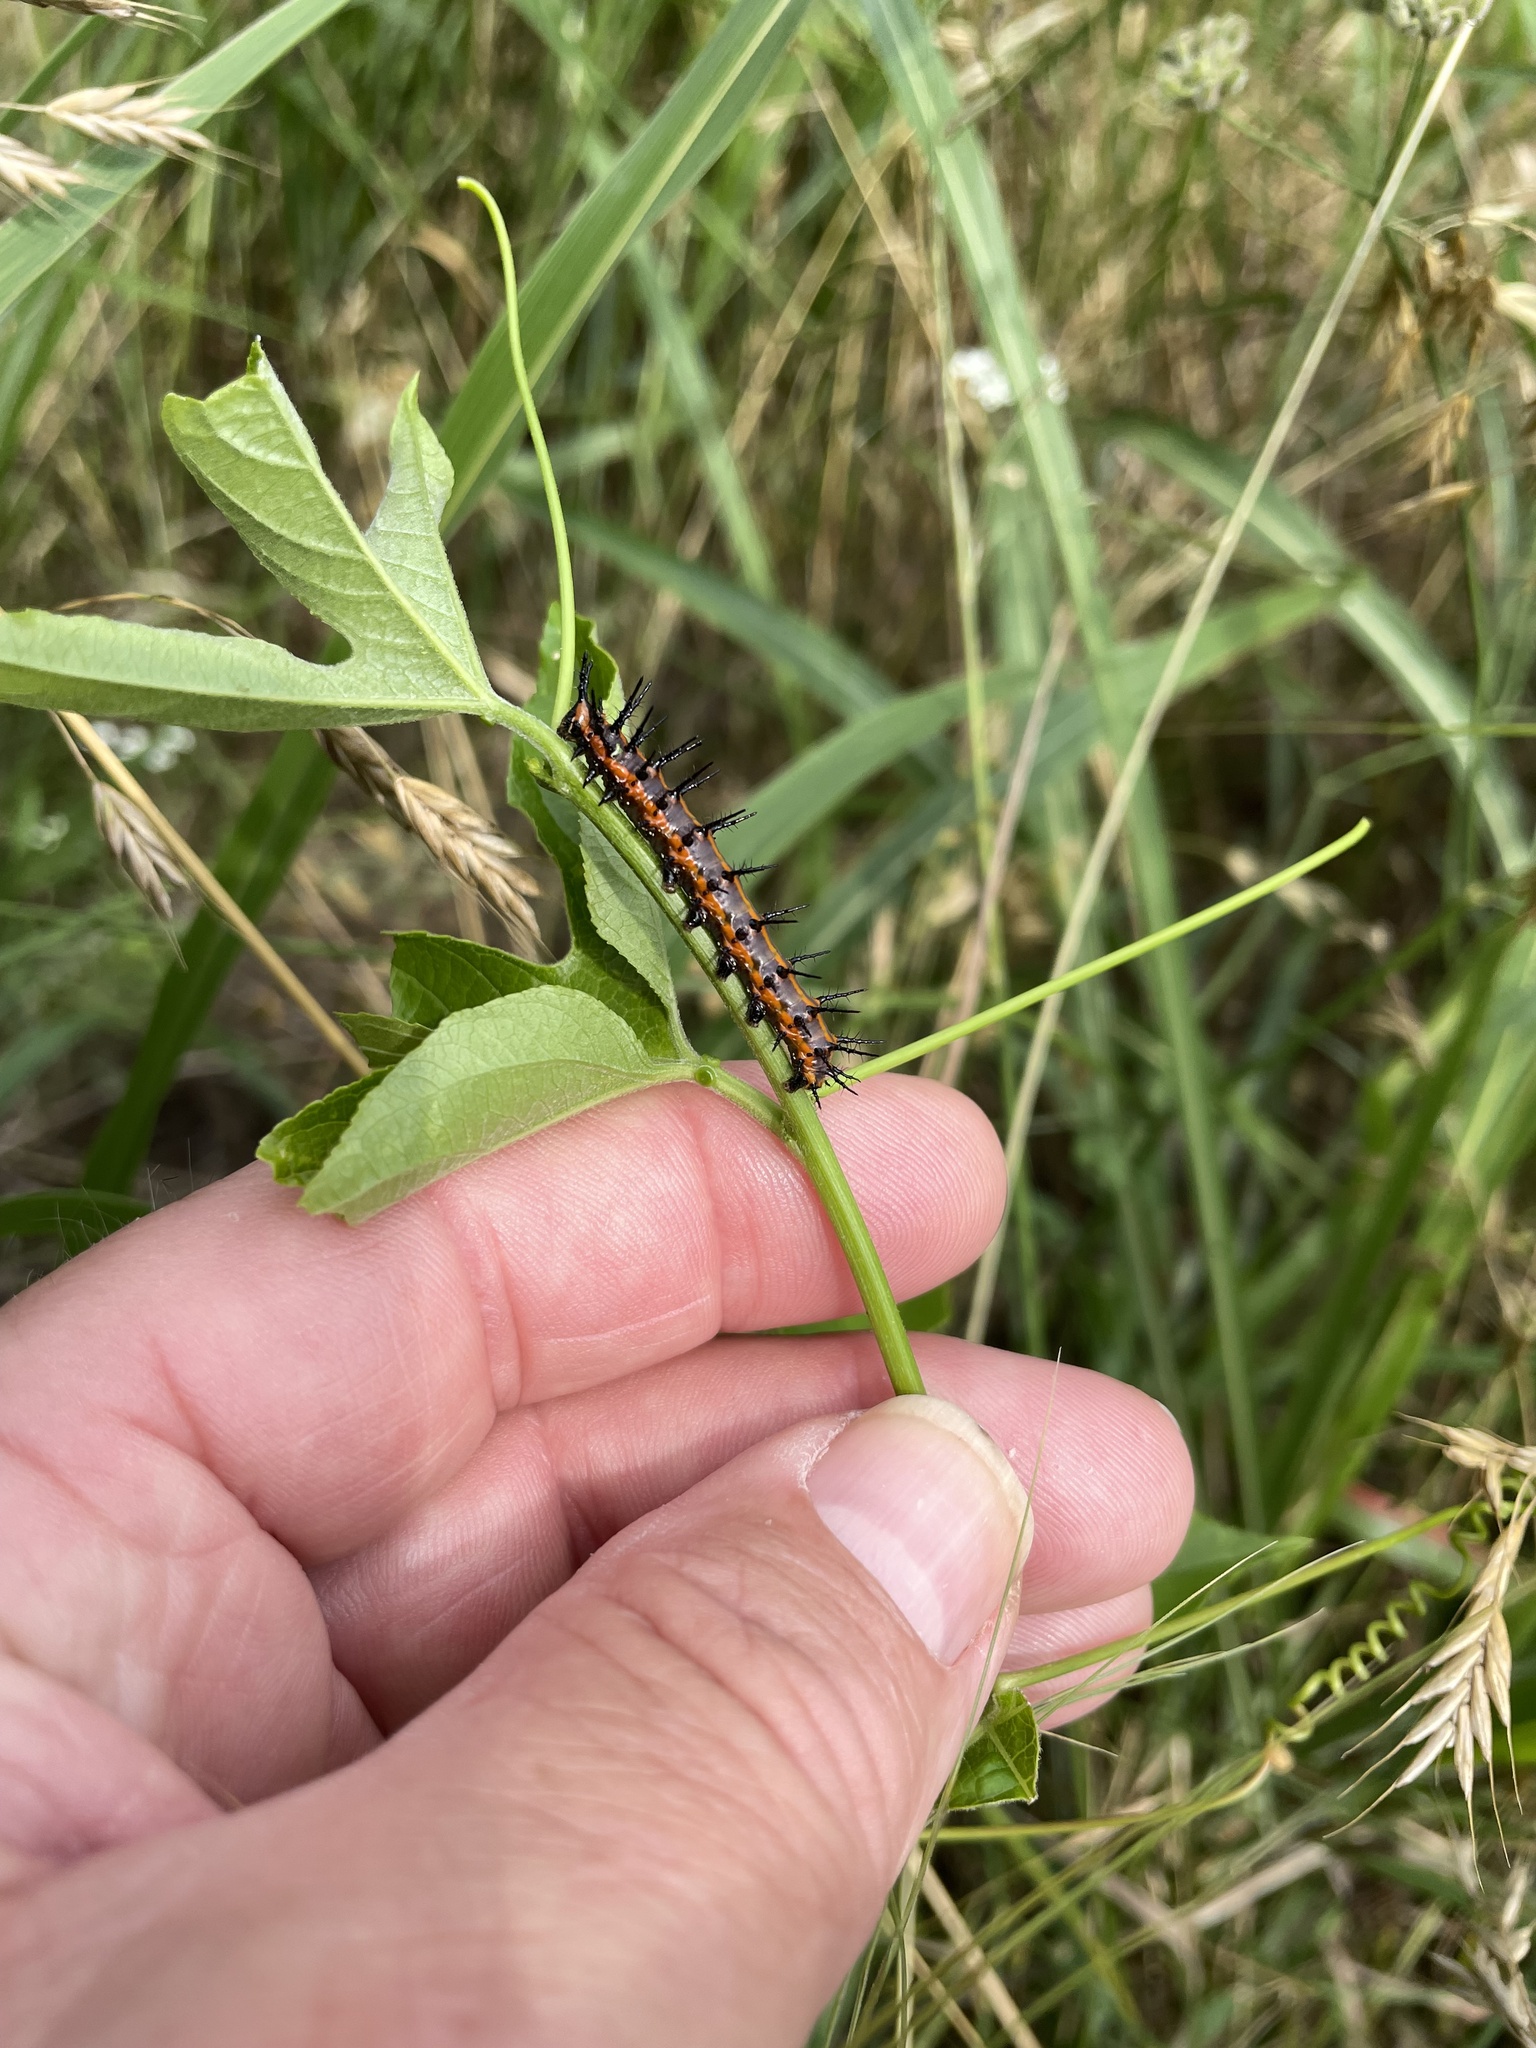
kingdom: Animalia
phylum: Arthropoda
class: Insecta
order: Lepidoptera
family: Nymphalidae
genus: Dione
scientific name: Dione vanillae
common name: Gulf fritillary
